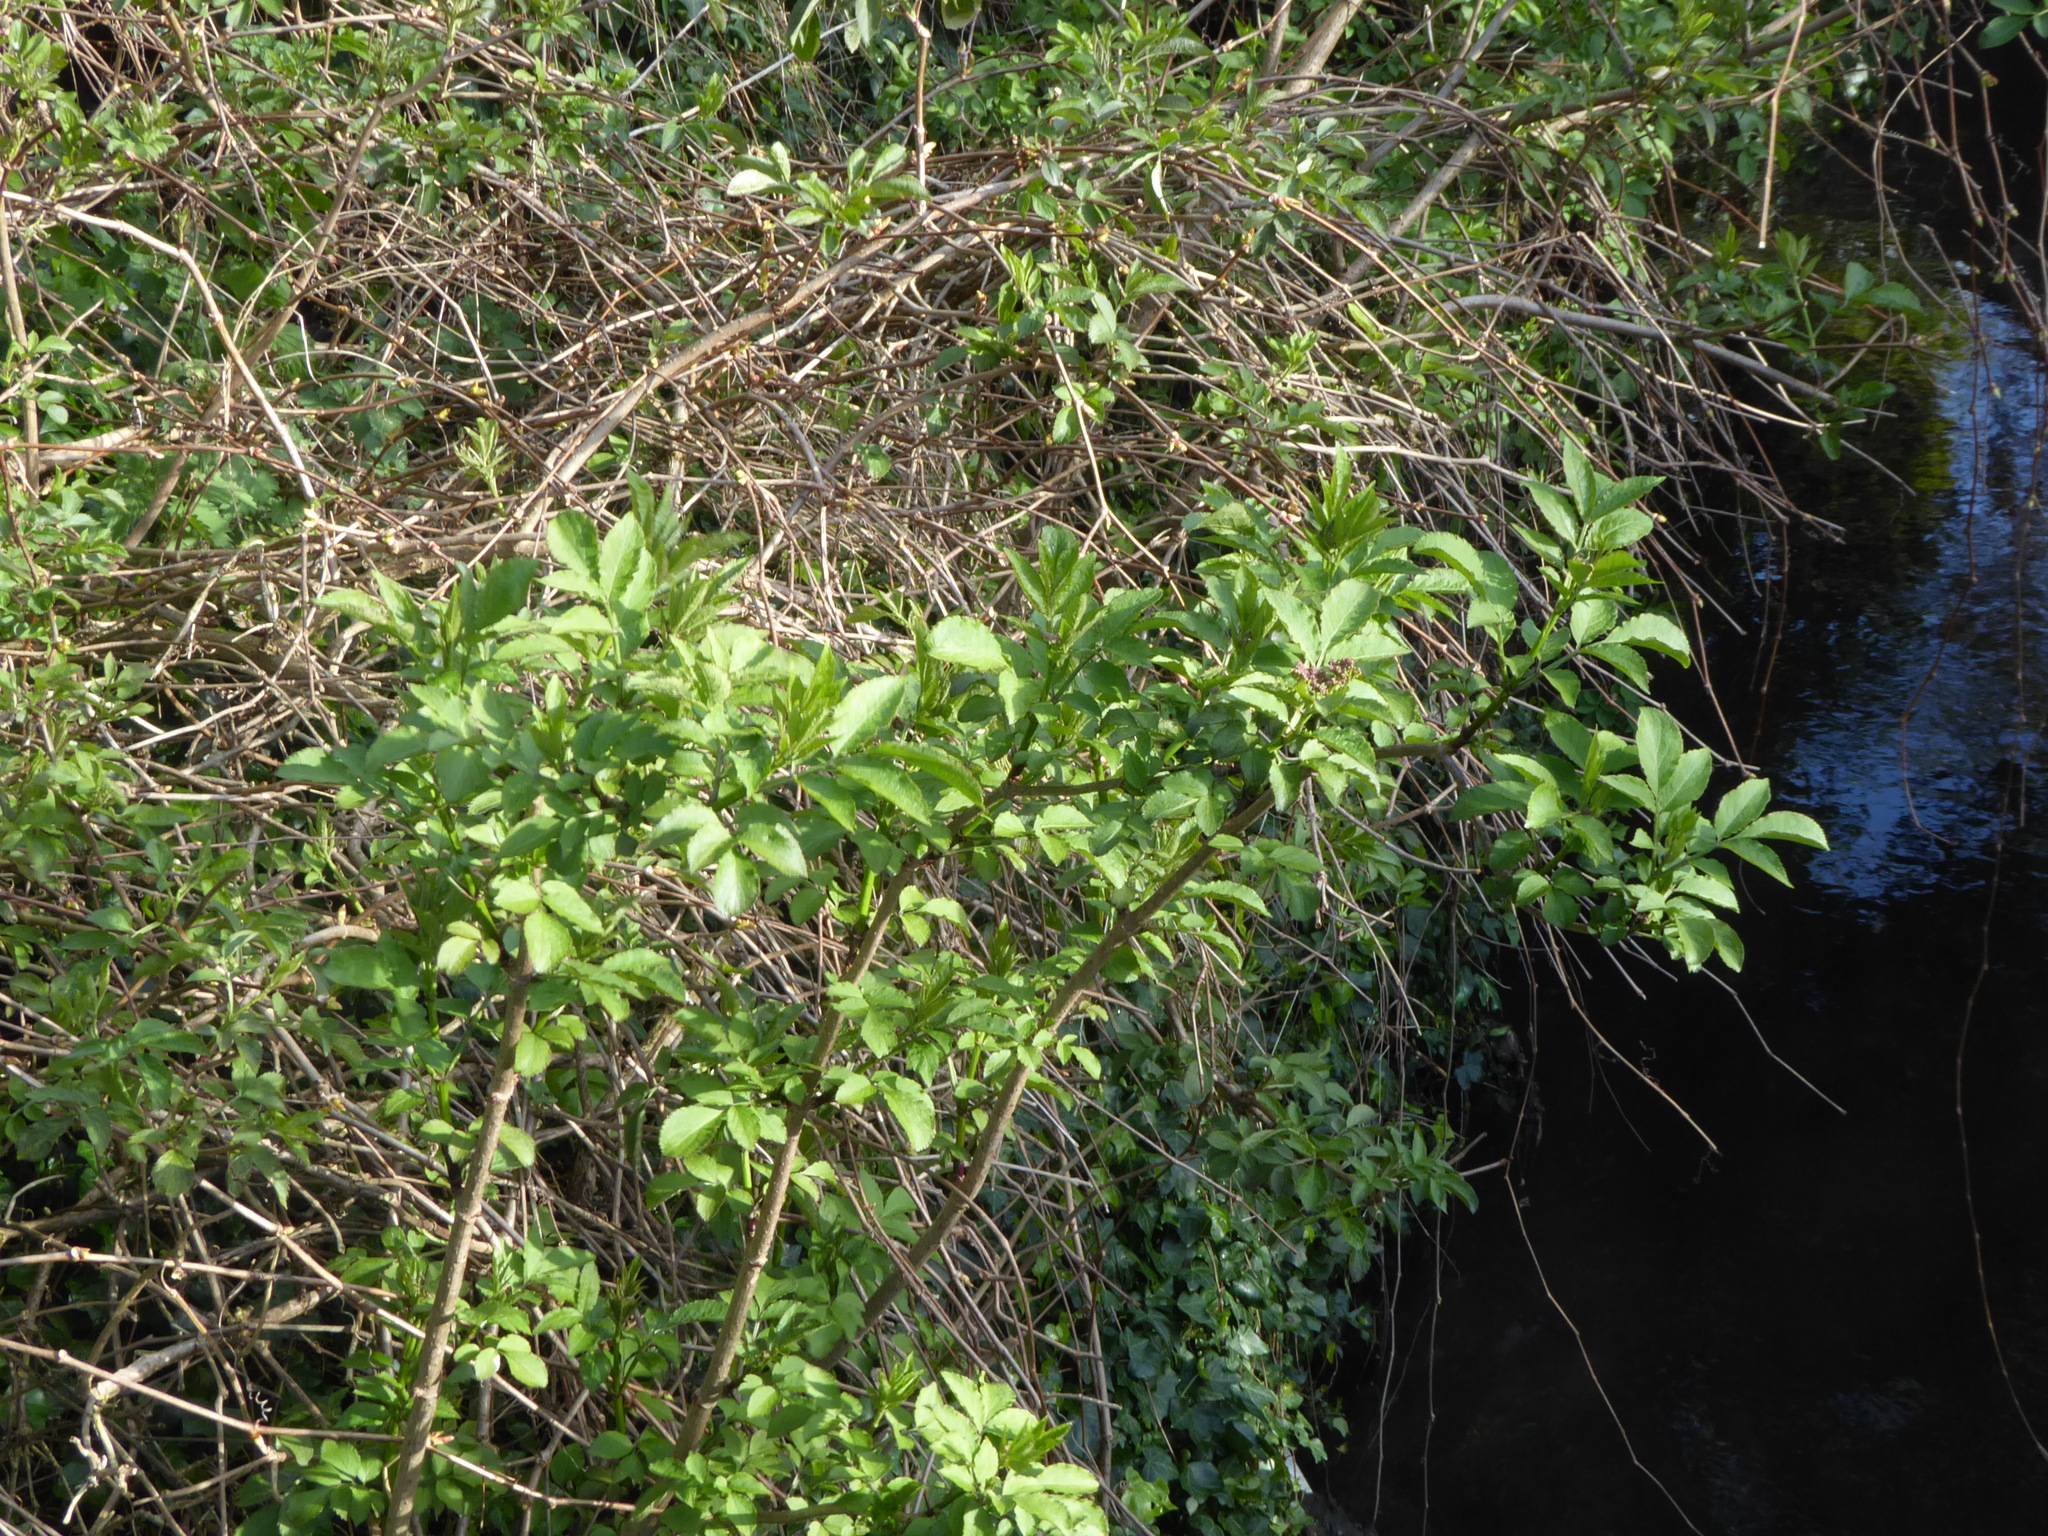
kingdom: Plantae
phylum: Tracheophyta
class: Magnoliopsida
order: Dipsacales
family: Viburnaceae
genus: Sambucus
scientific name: Sambucus nigra
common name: Elder
